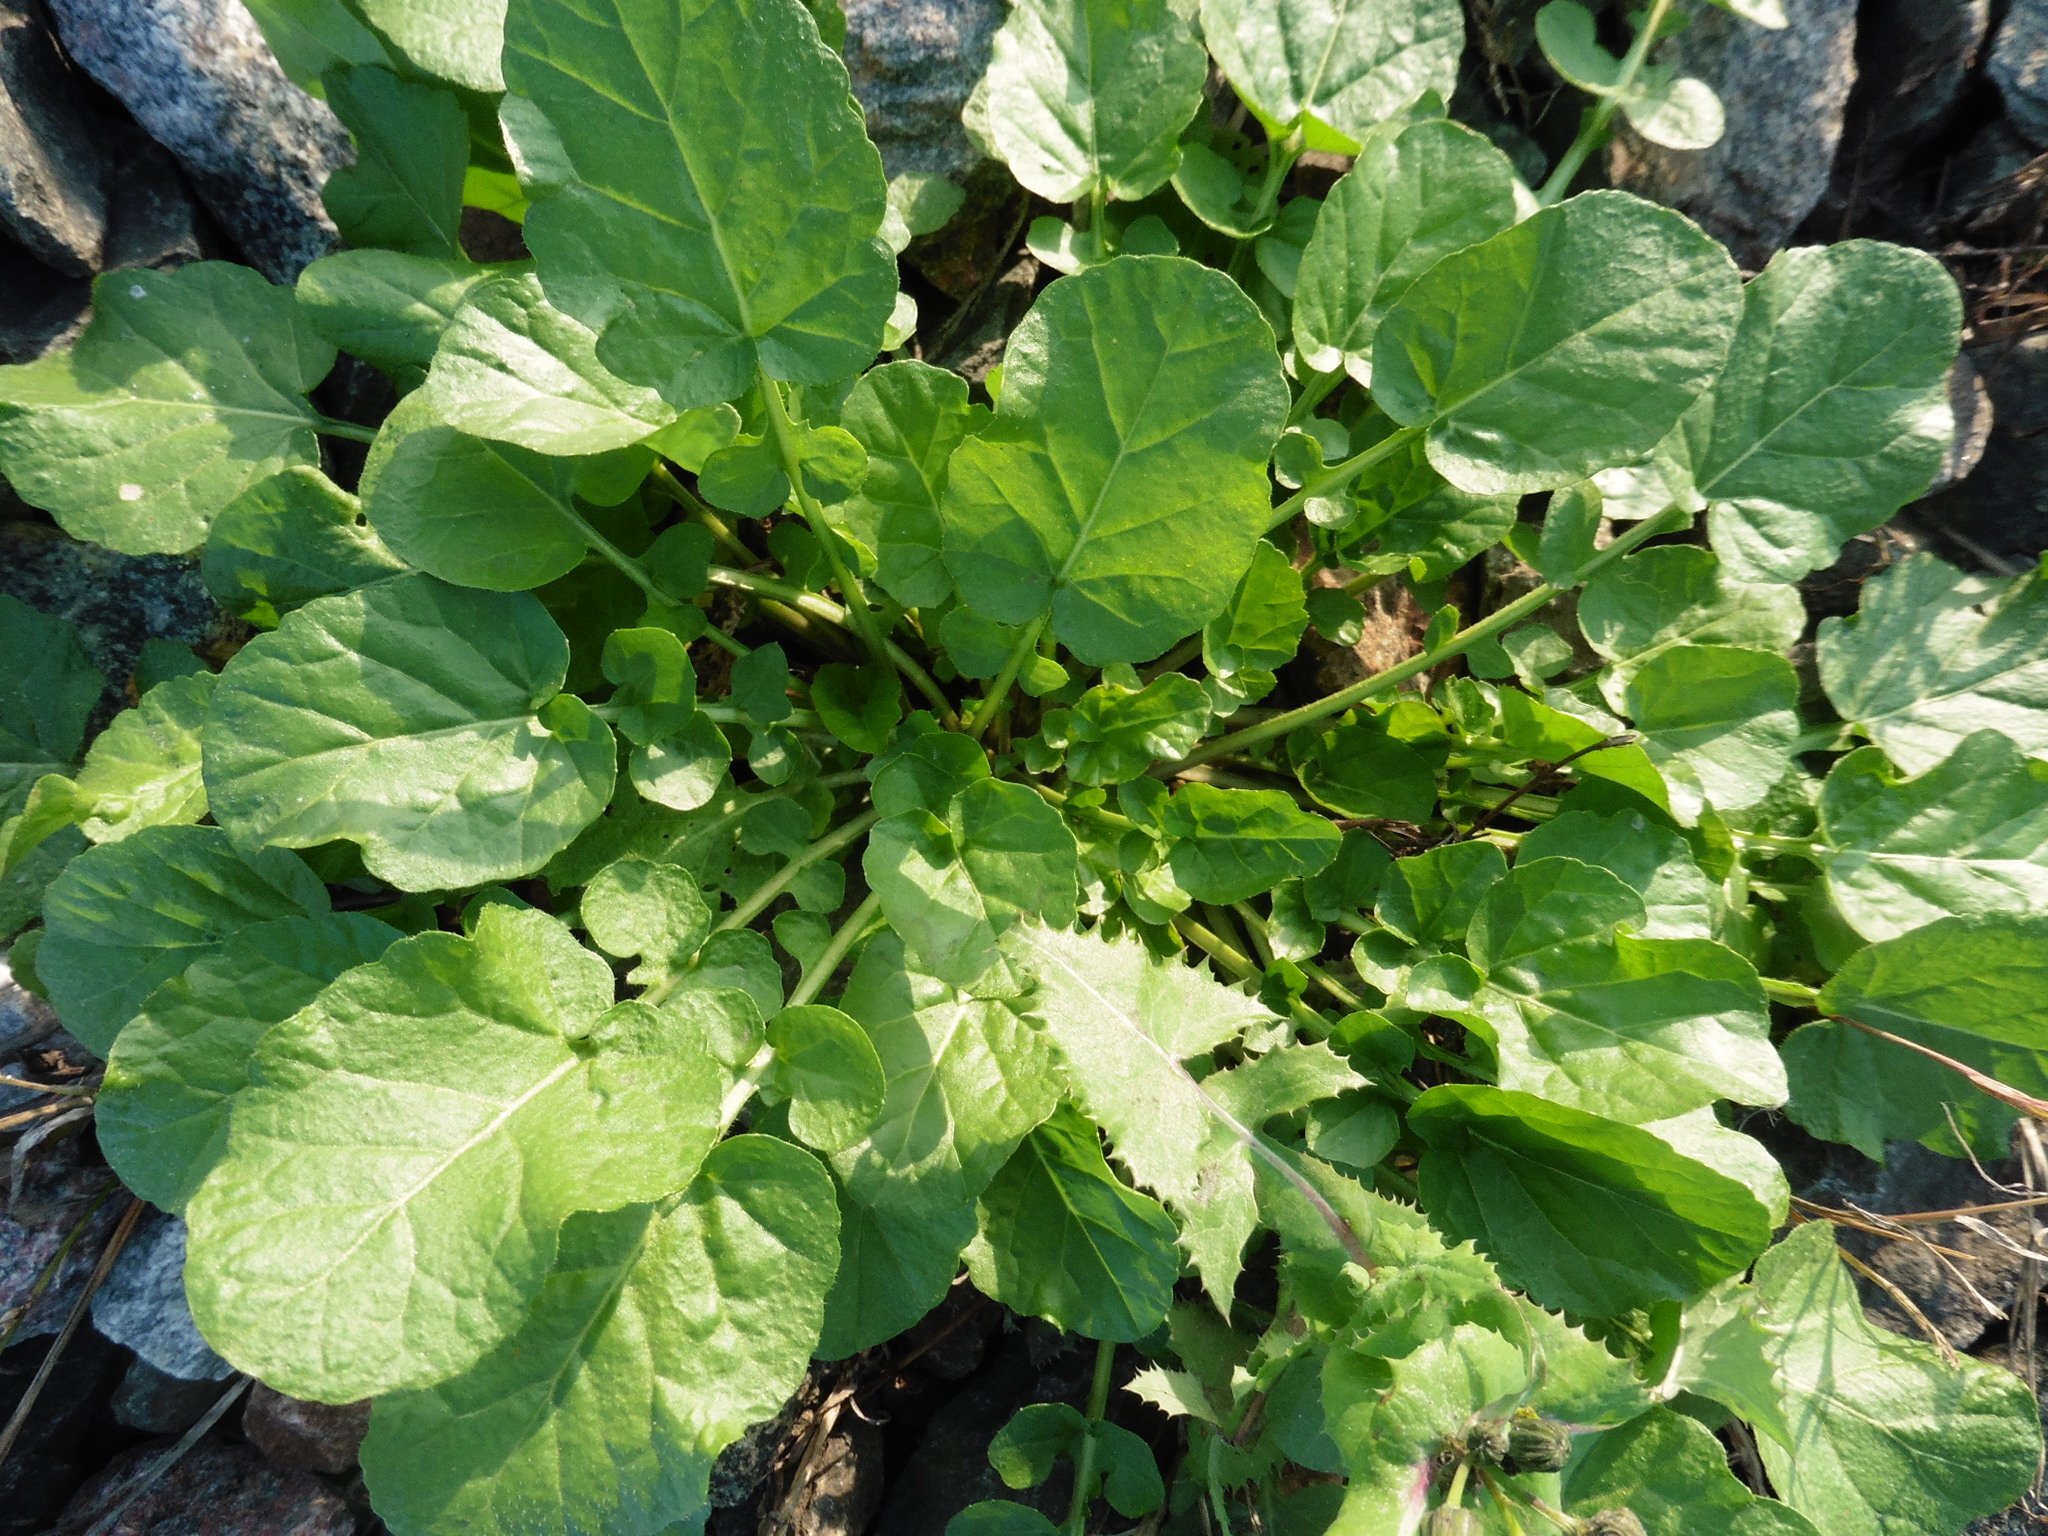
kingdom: Plantae
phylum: Tracheophyta
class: Magnoliopsida
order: Brassicales
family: Brassicaceae
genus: Rorippa
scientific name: Rorippa amphibia
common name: Great yellow-cress
